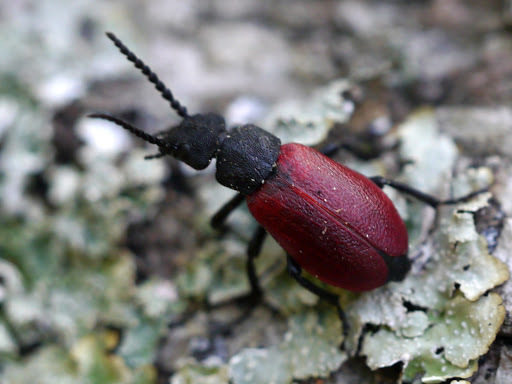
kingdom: Animalia
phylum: Arthropoda
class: Insecta
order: Coleoptera
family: Meloidae
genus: Tricrania
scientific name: Tricrania sanguinipennis
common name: Blood-winged blister beetle
